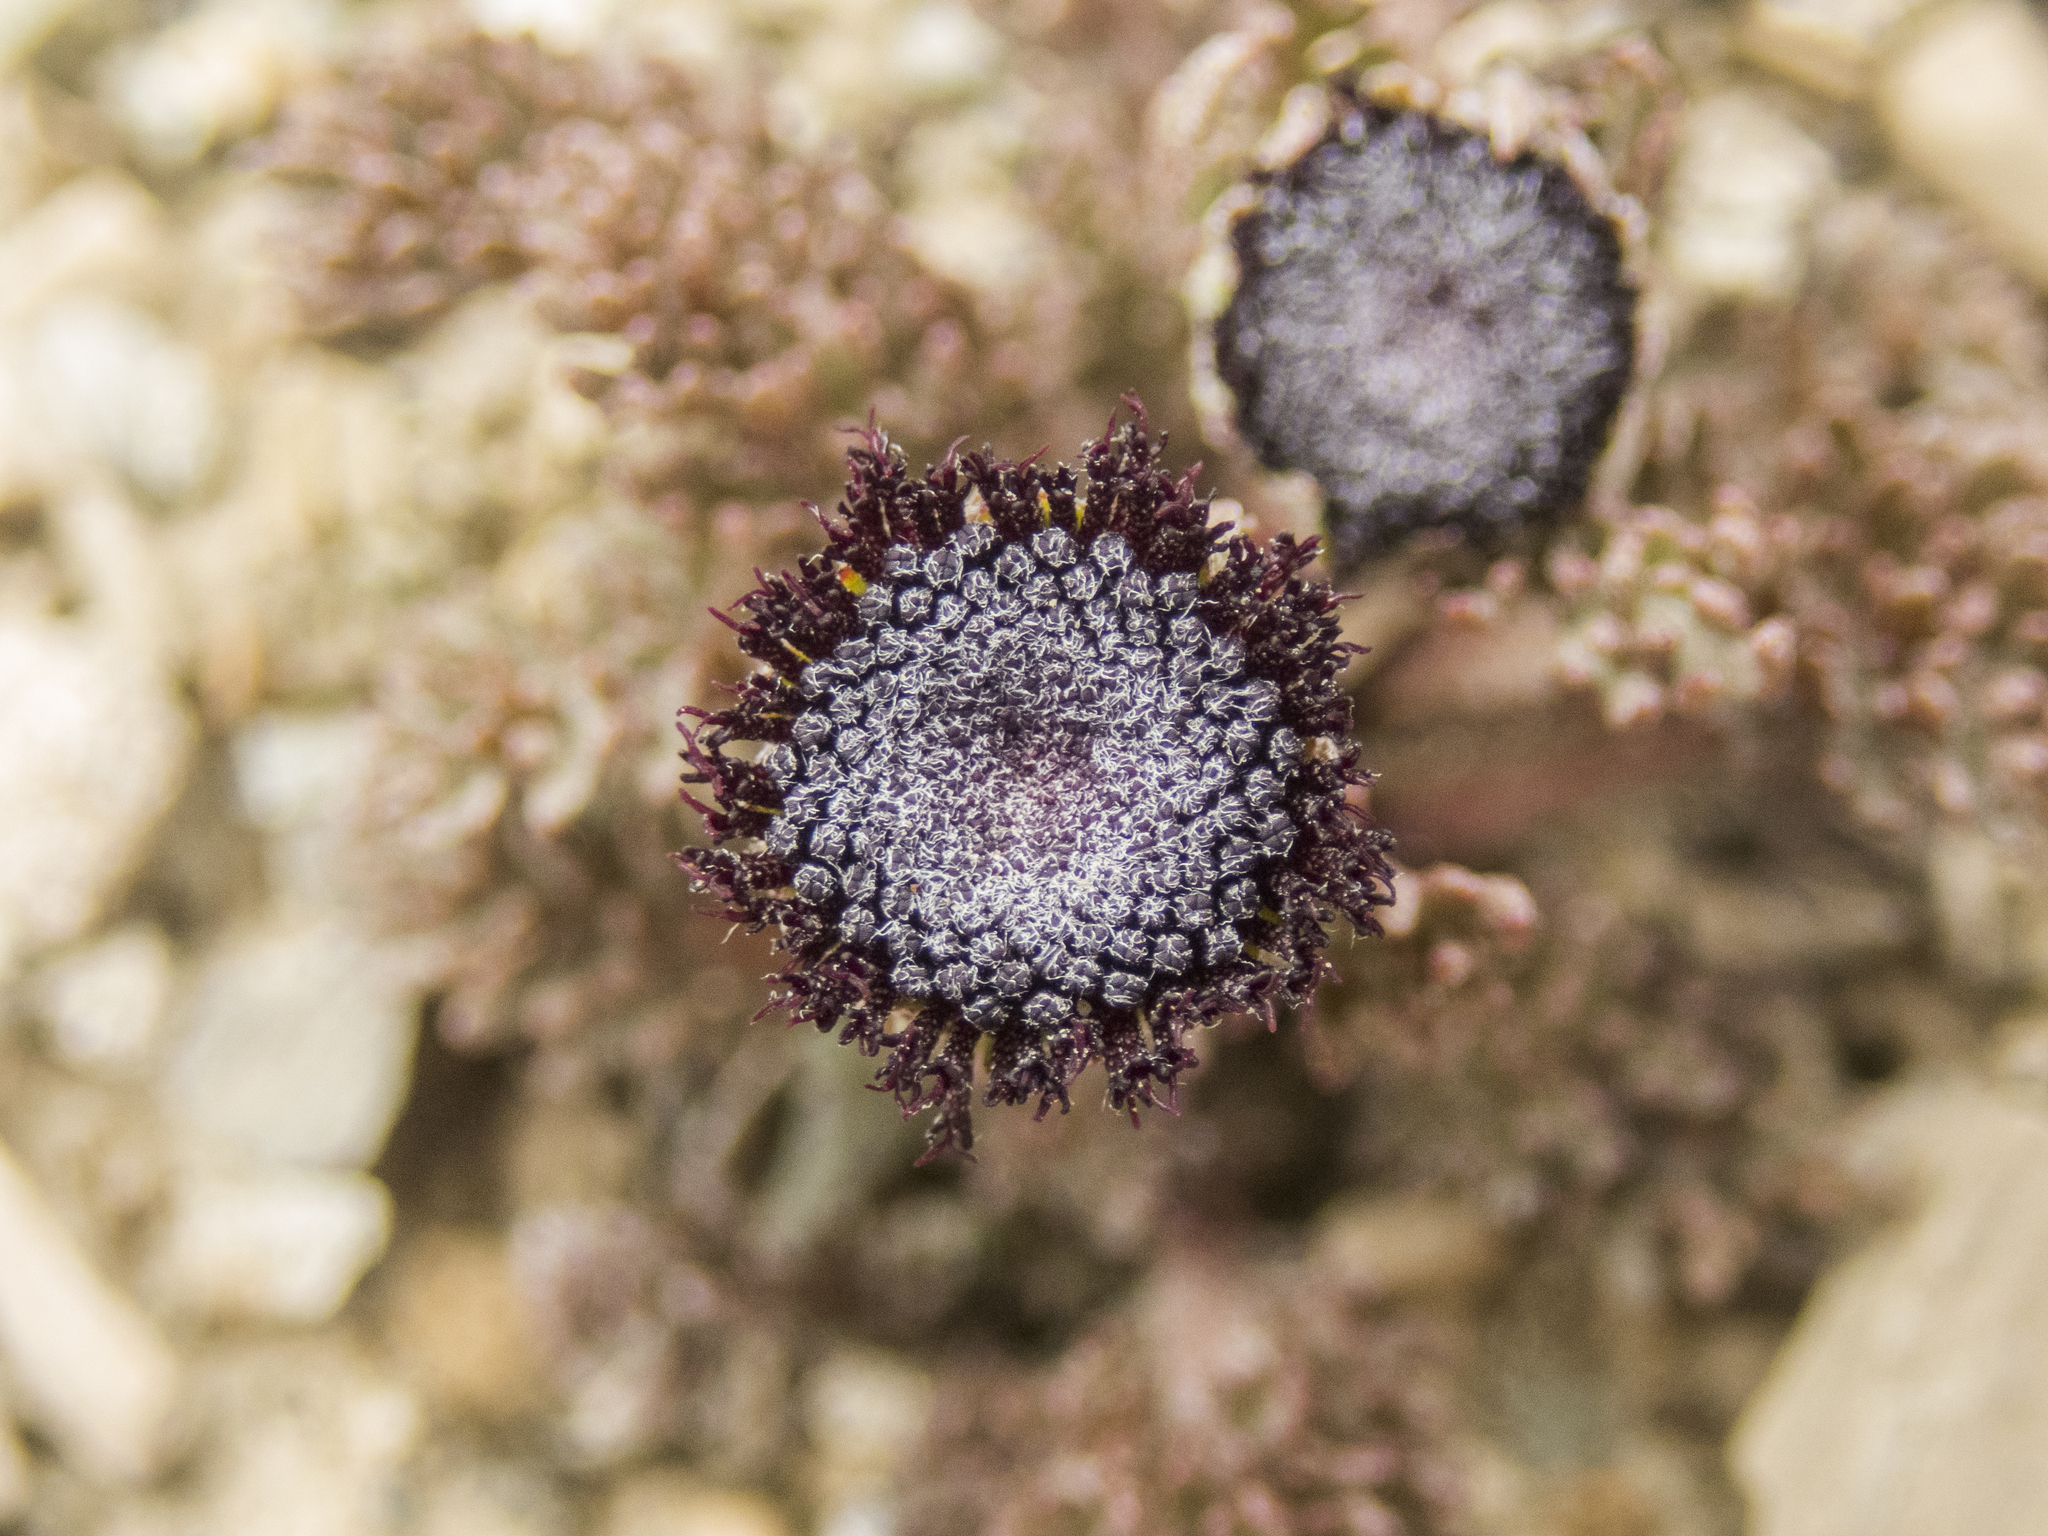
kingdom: Plantae
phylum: Tracheophyta
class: Magnoliopsida
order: Asterales
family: Asteraceae
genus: Leptinella
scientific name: Leptinella atrata
